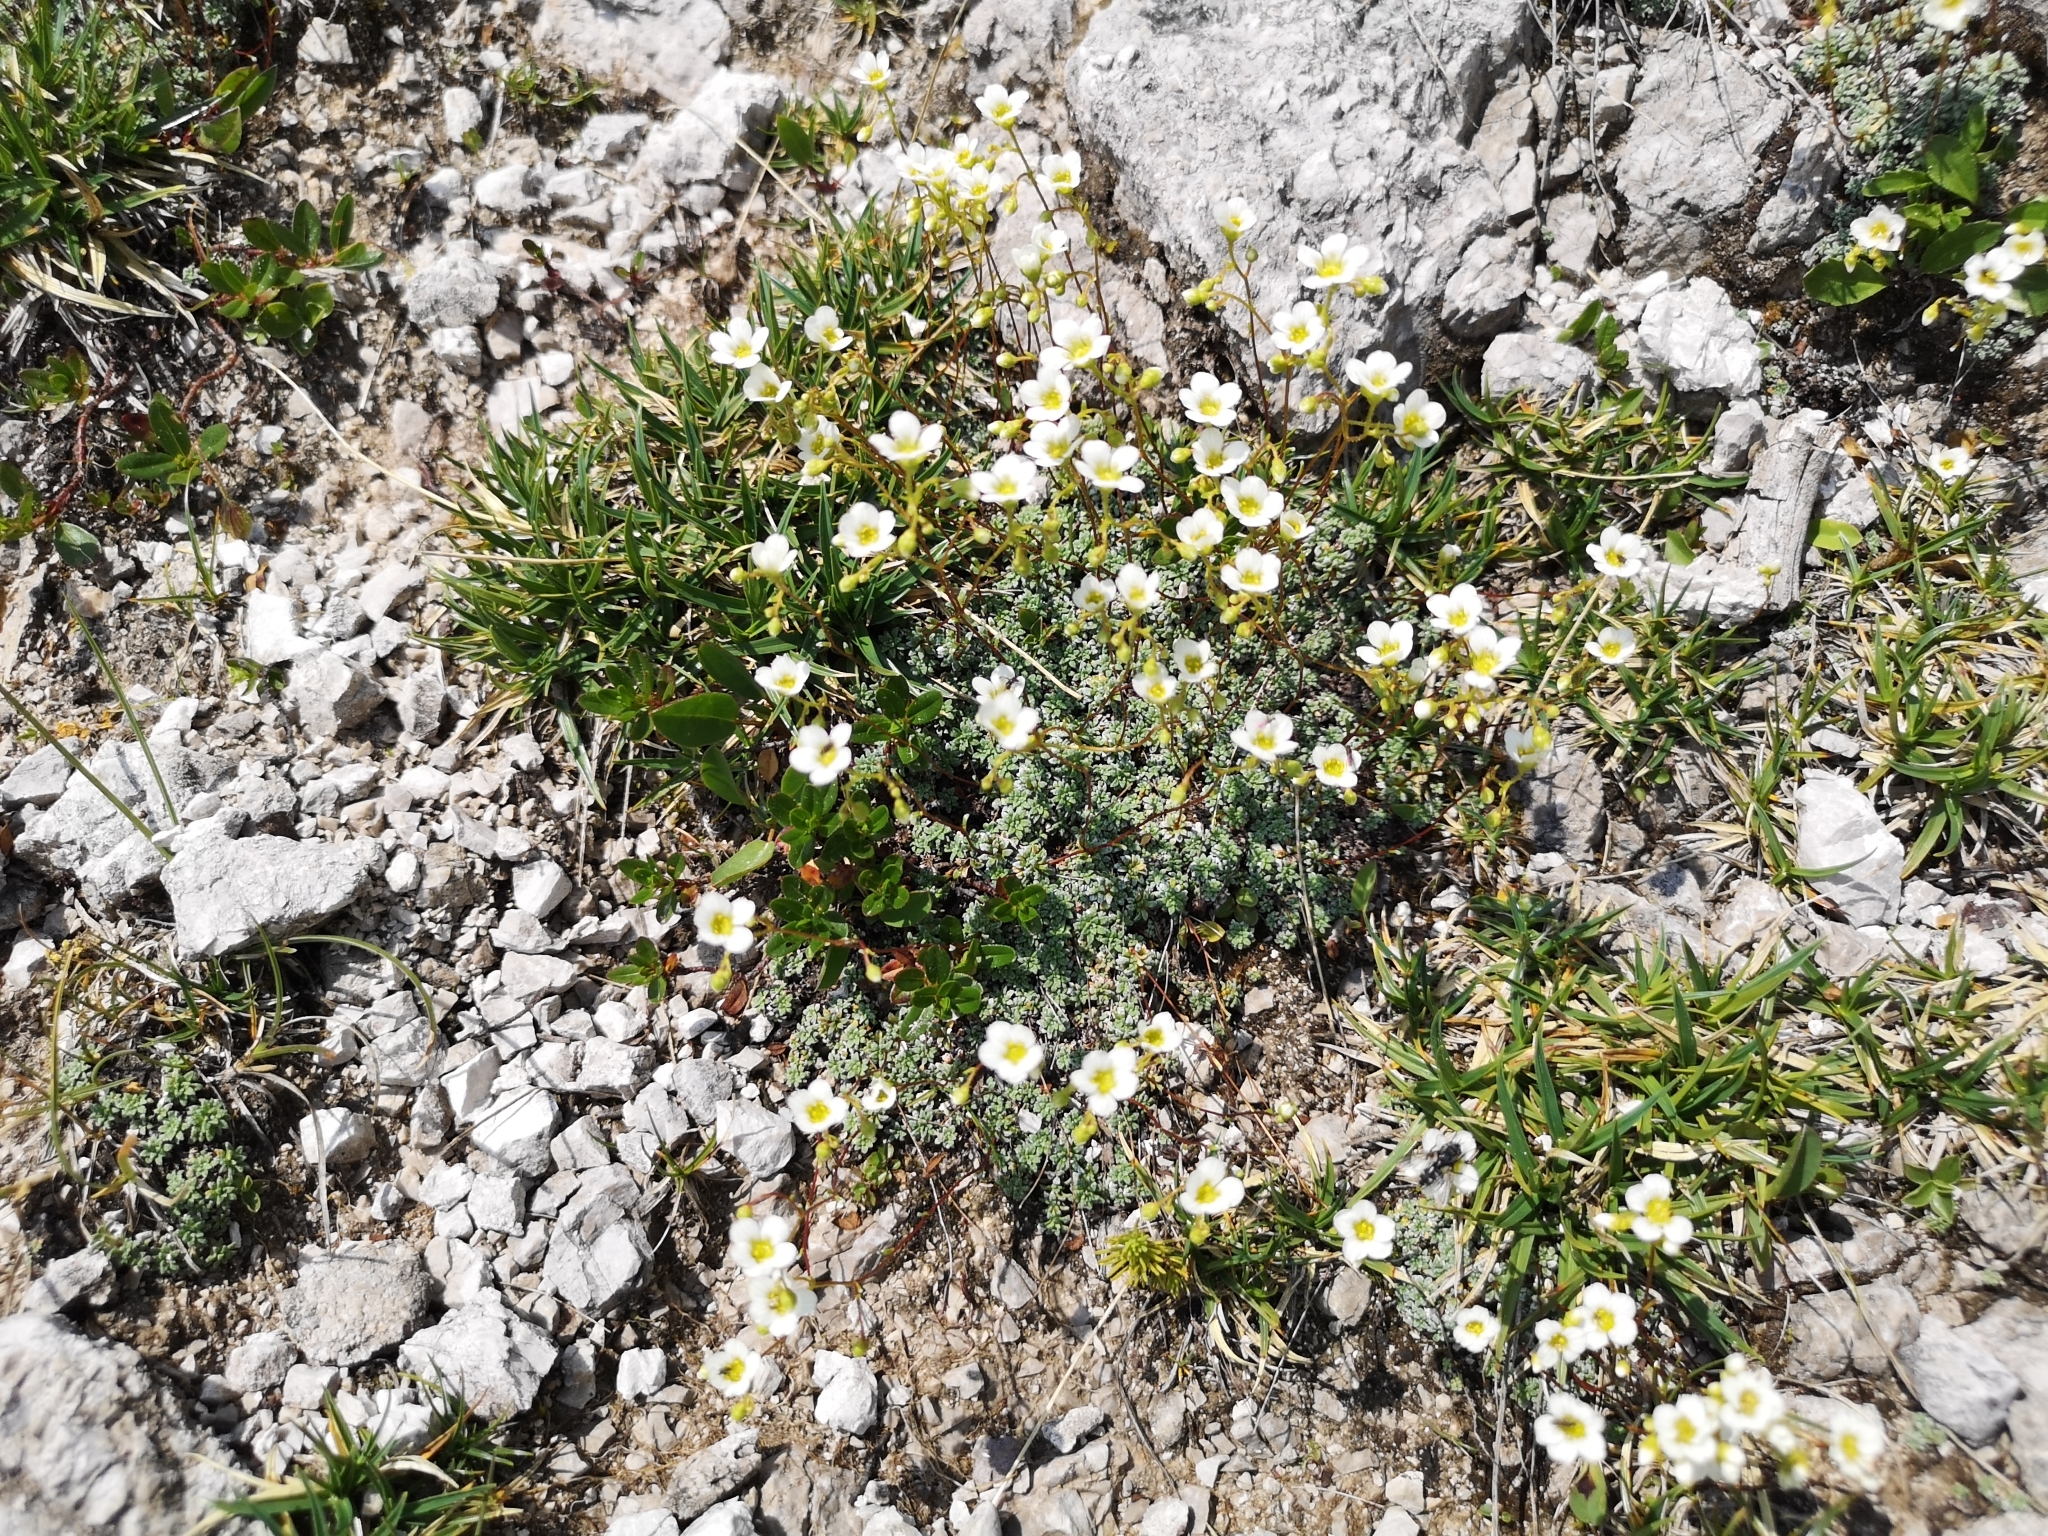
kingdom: Plantae
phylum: Tracheophyta
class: Magnoliopsida
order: Saxifragales
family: Saxifragaceae
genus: Saxifraga
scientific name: Saxifraga caesia
